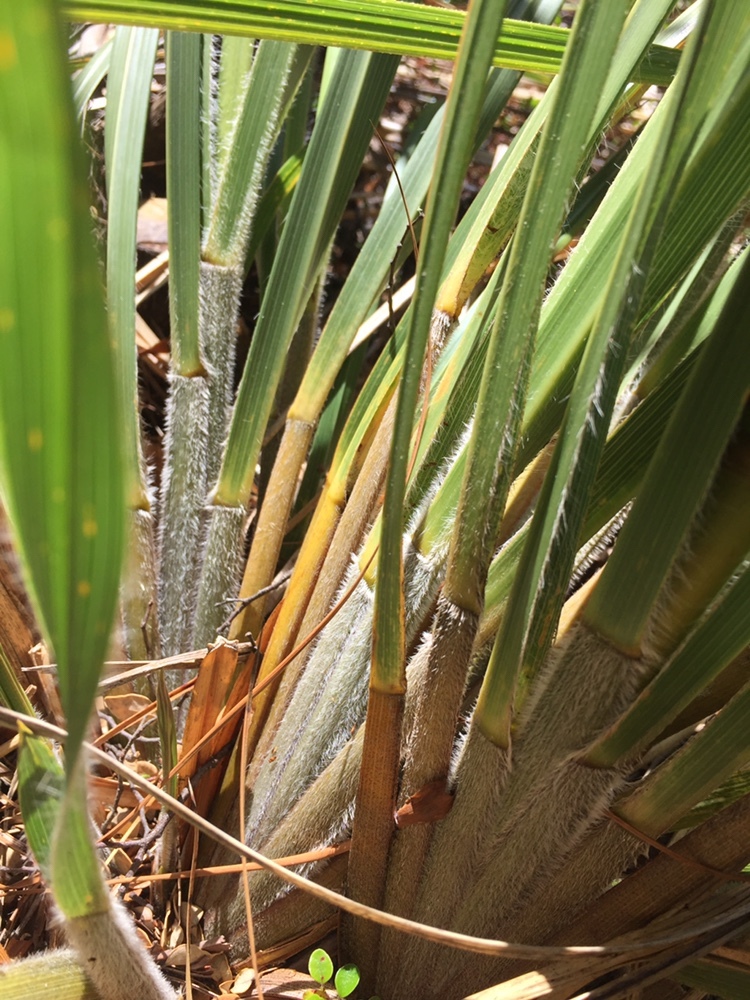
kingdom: Plantae
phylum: Tracheophyta
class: Liliopsida
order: Poales
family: Poaceae
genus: Chionochloa
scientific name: Chionochloa conspicua
